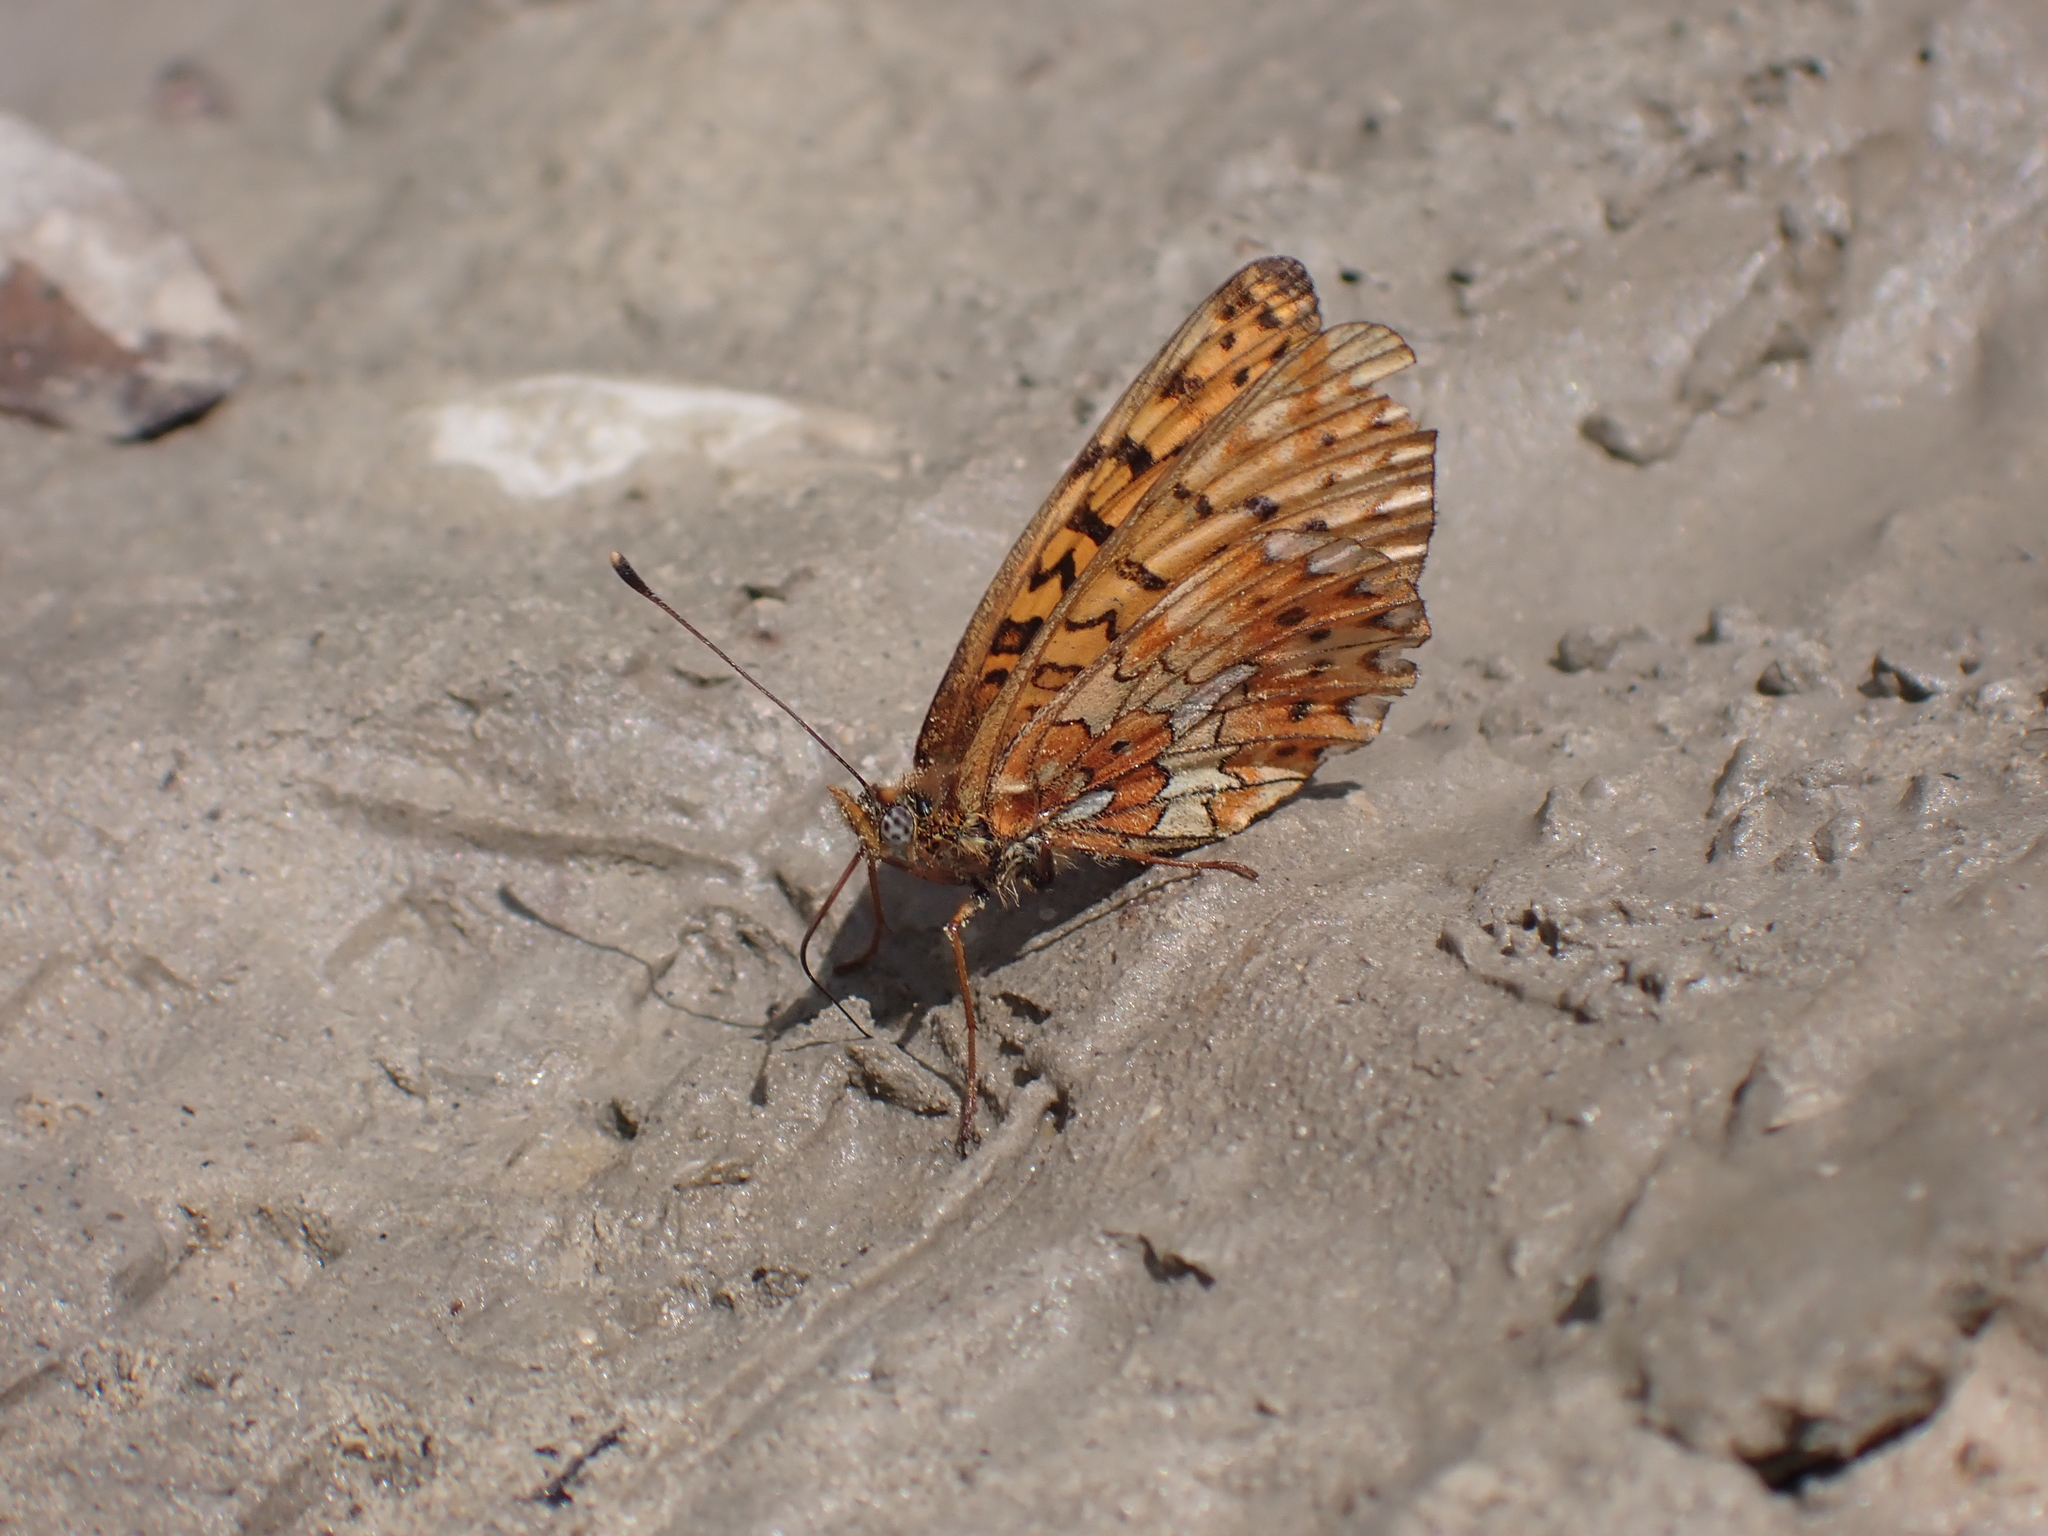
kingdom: Animalia
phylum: Arthropoda
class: Insecta
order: Lepidoptera
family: Nymphalidae
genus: Clossiana
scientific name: Clossiana euphrosyne
